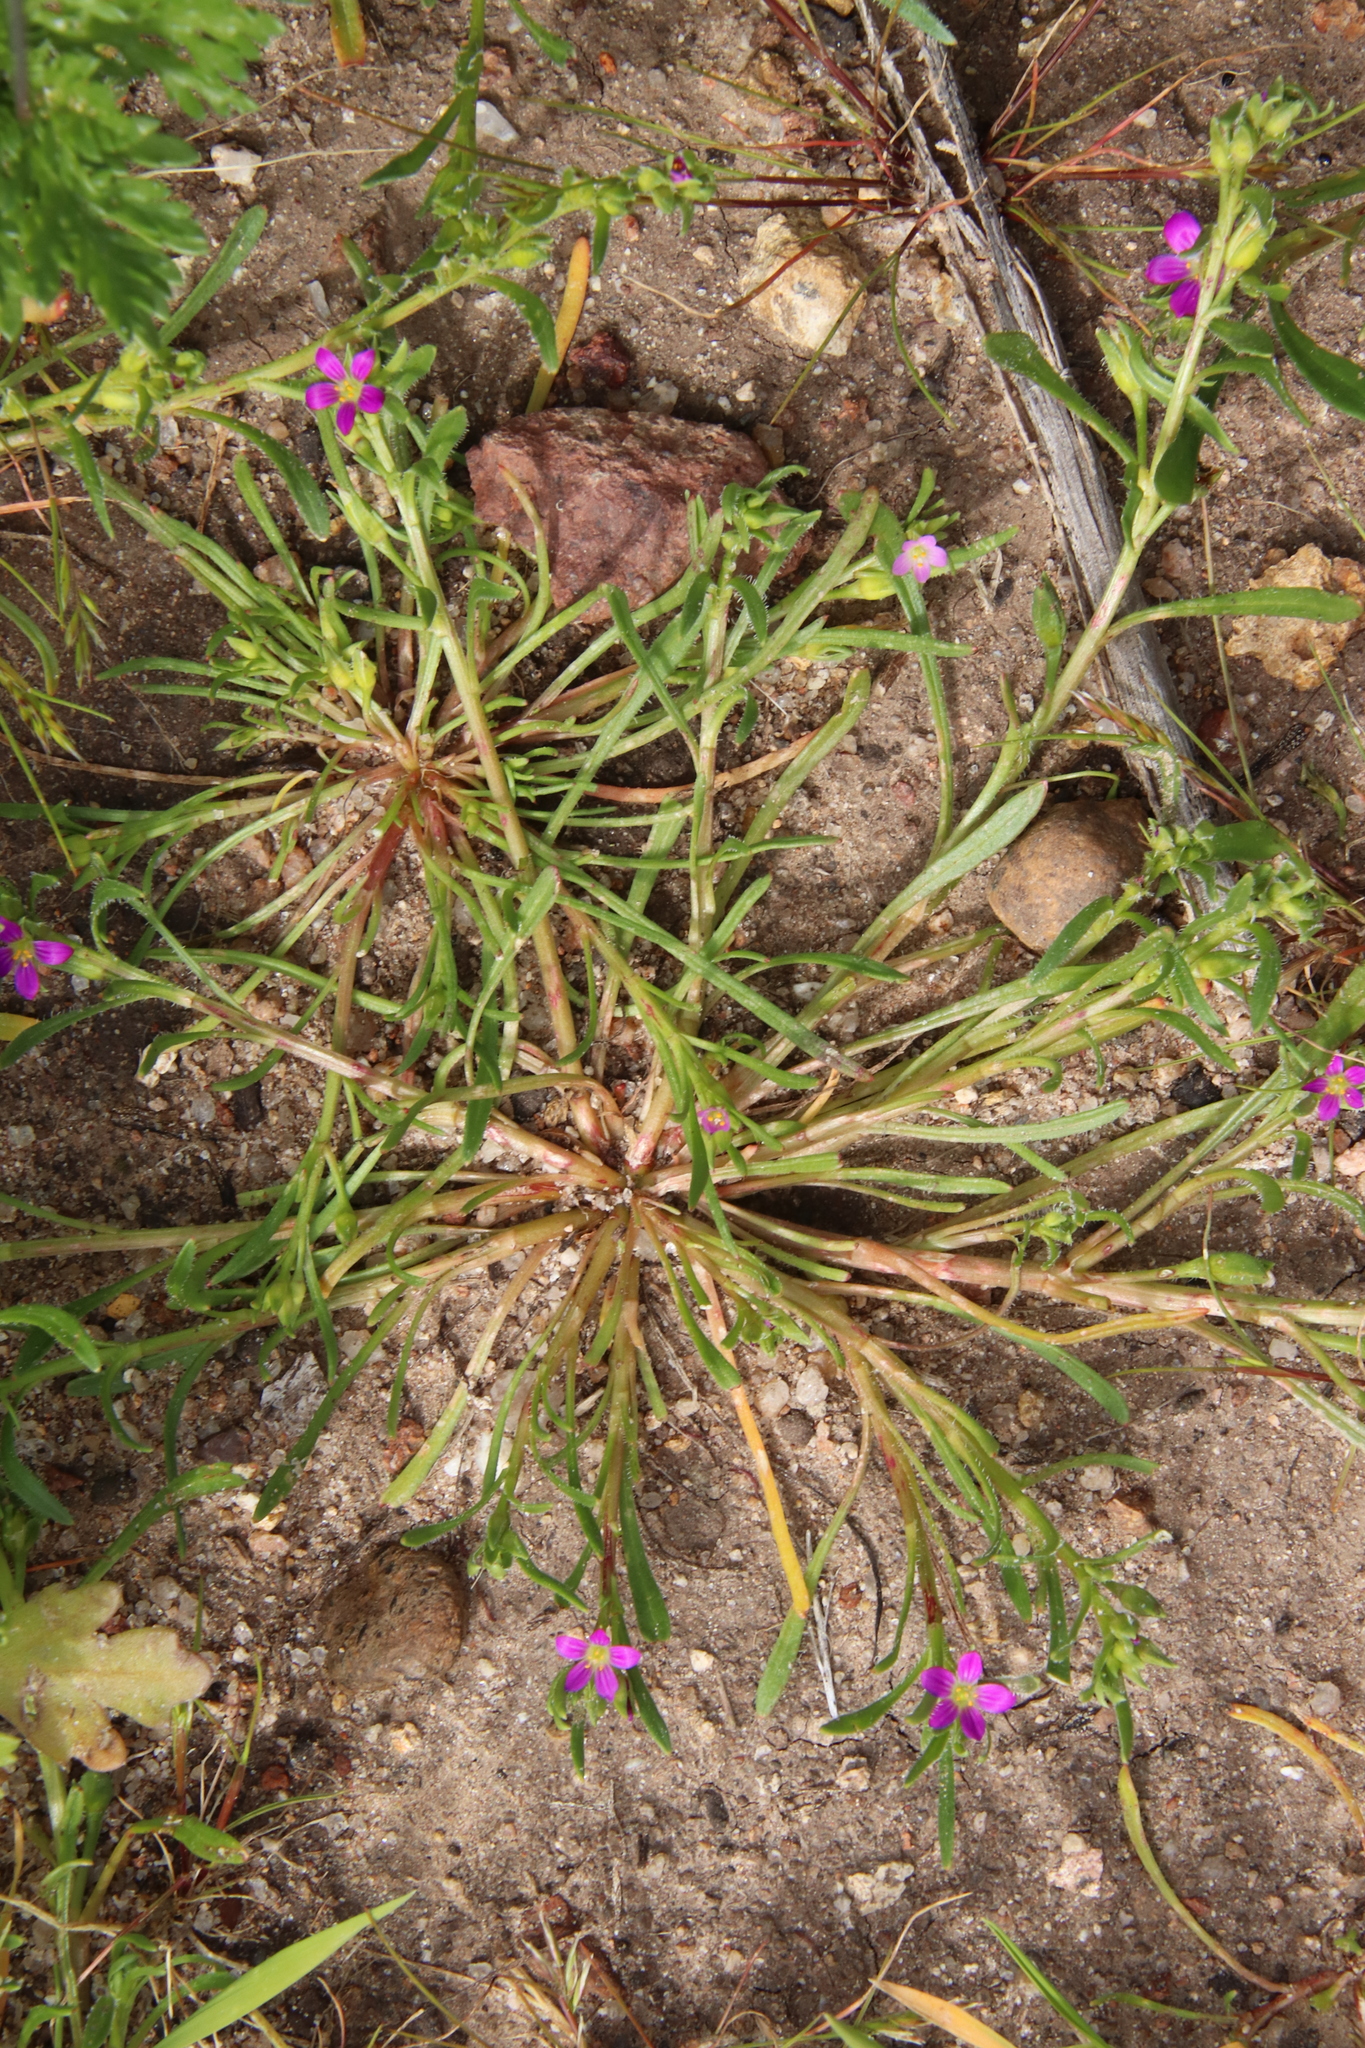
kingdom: Plantae
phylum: Tracheophyta
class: Magnoliopsida
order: Caryophyllales
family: Montiaceae
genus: Calandrinia
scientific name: Calandrinia menziesii
